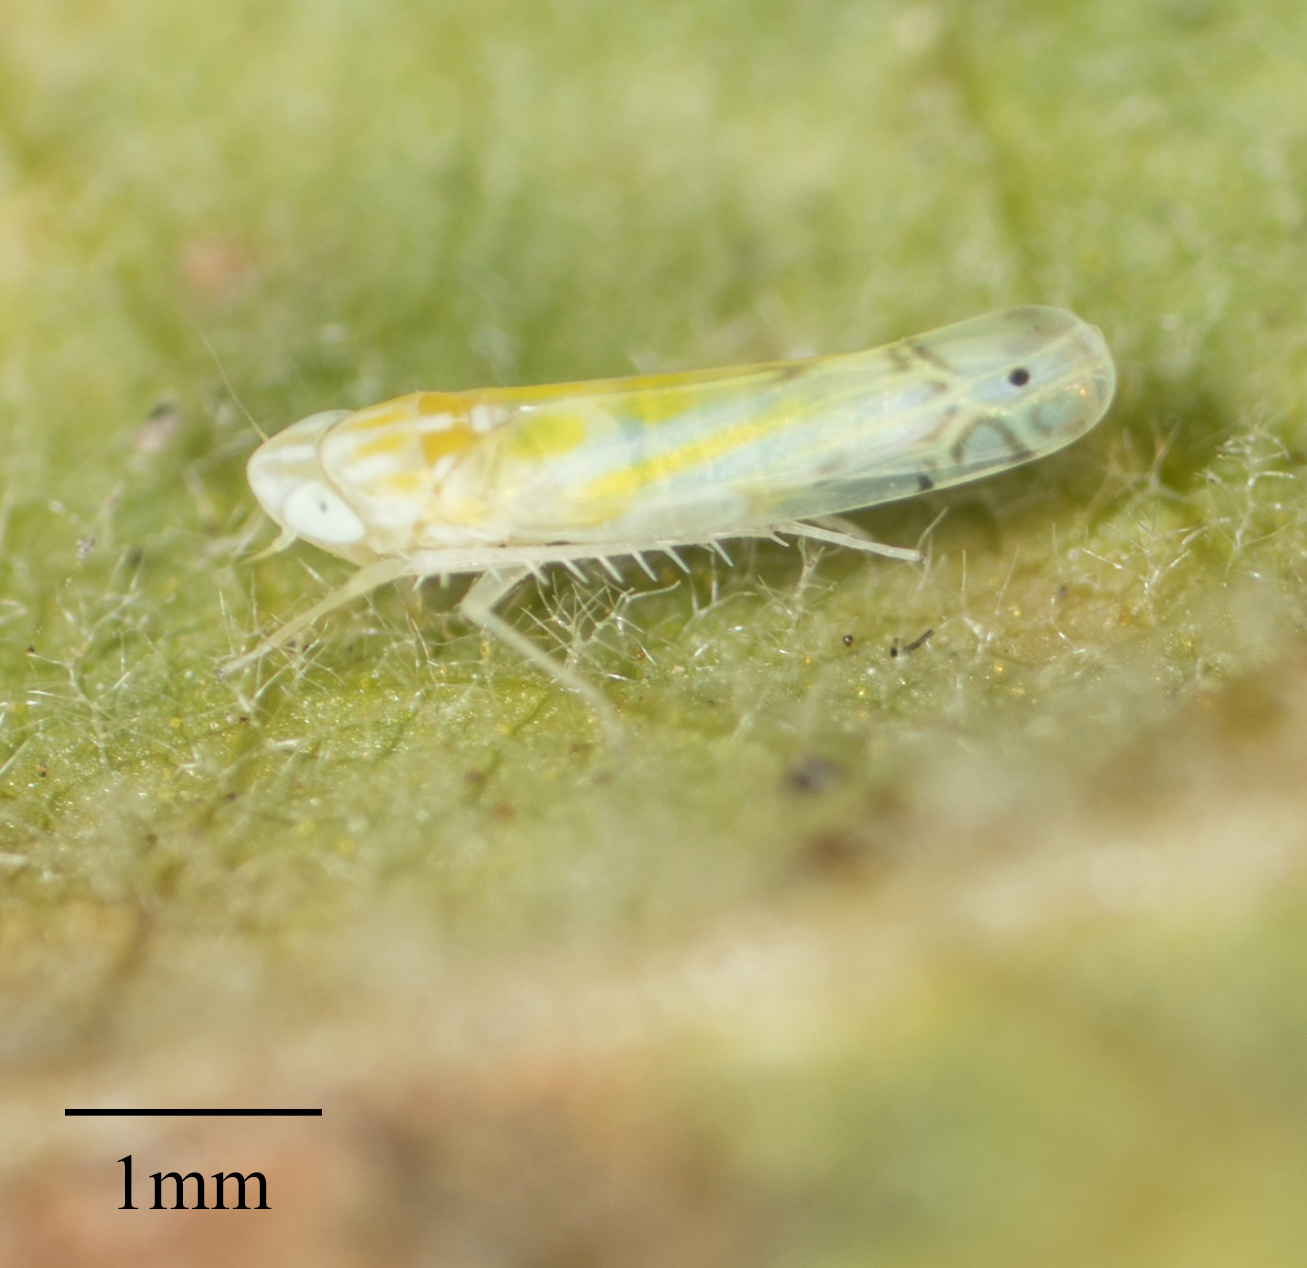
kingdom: Animalia
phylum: Arthropoda
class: Insecta
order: Hemiptera
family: Cicadellidae
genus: Alconeura
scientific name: Alconeura quadrimaculata
